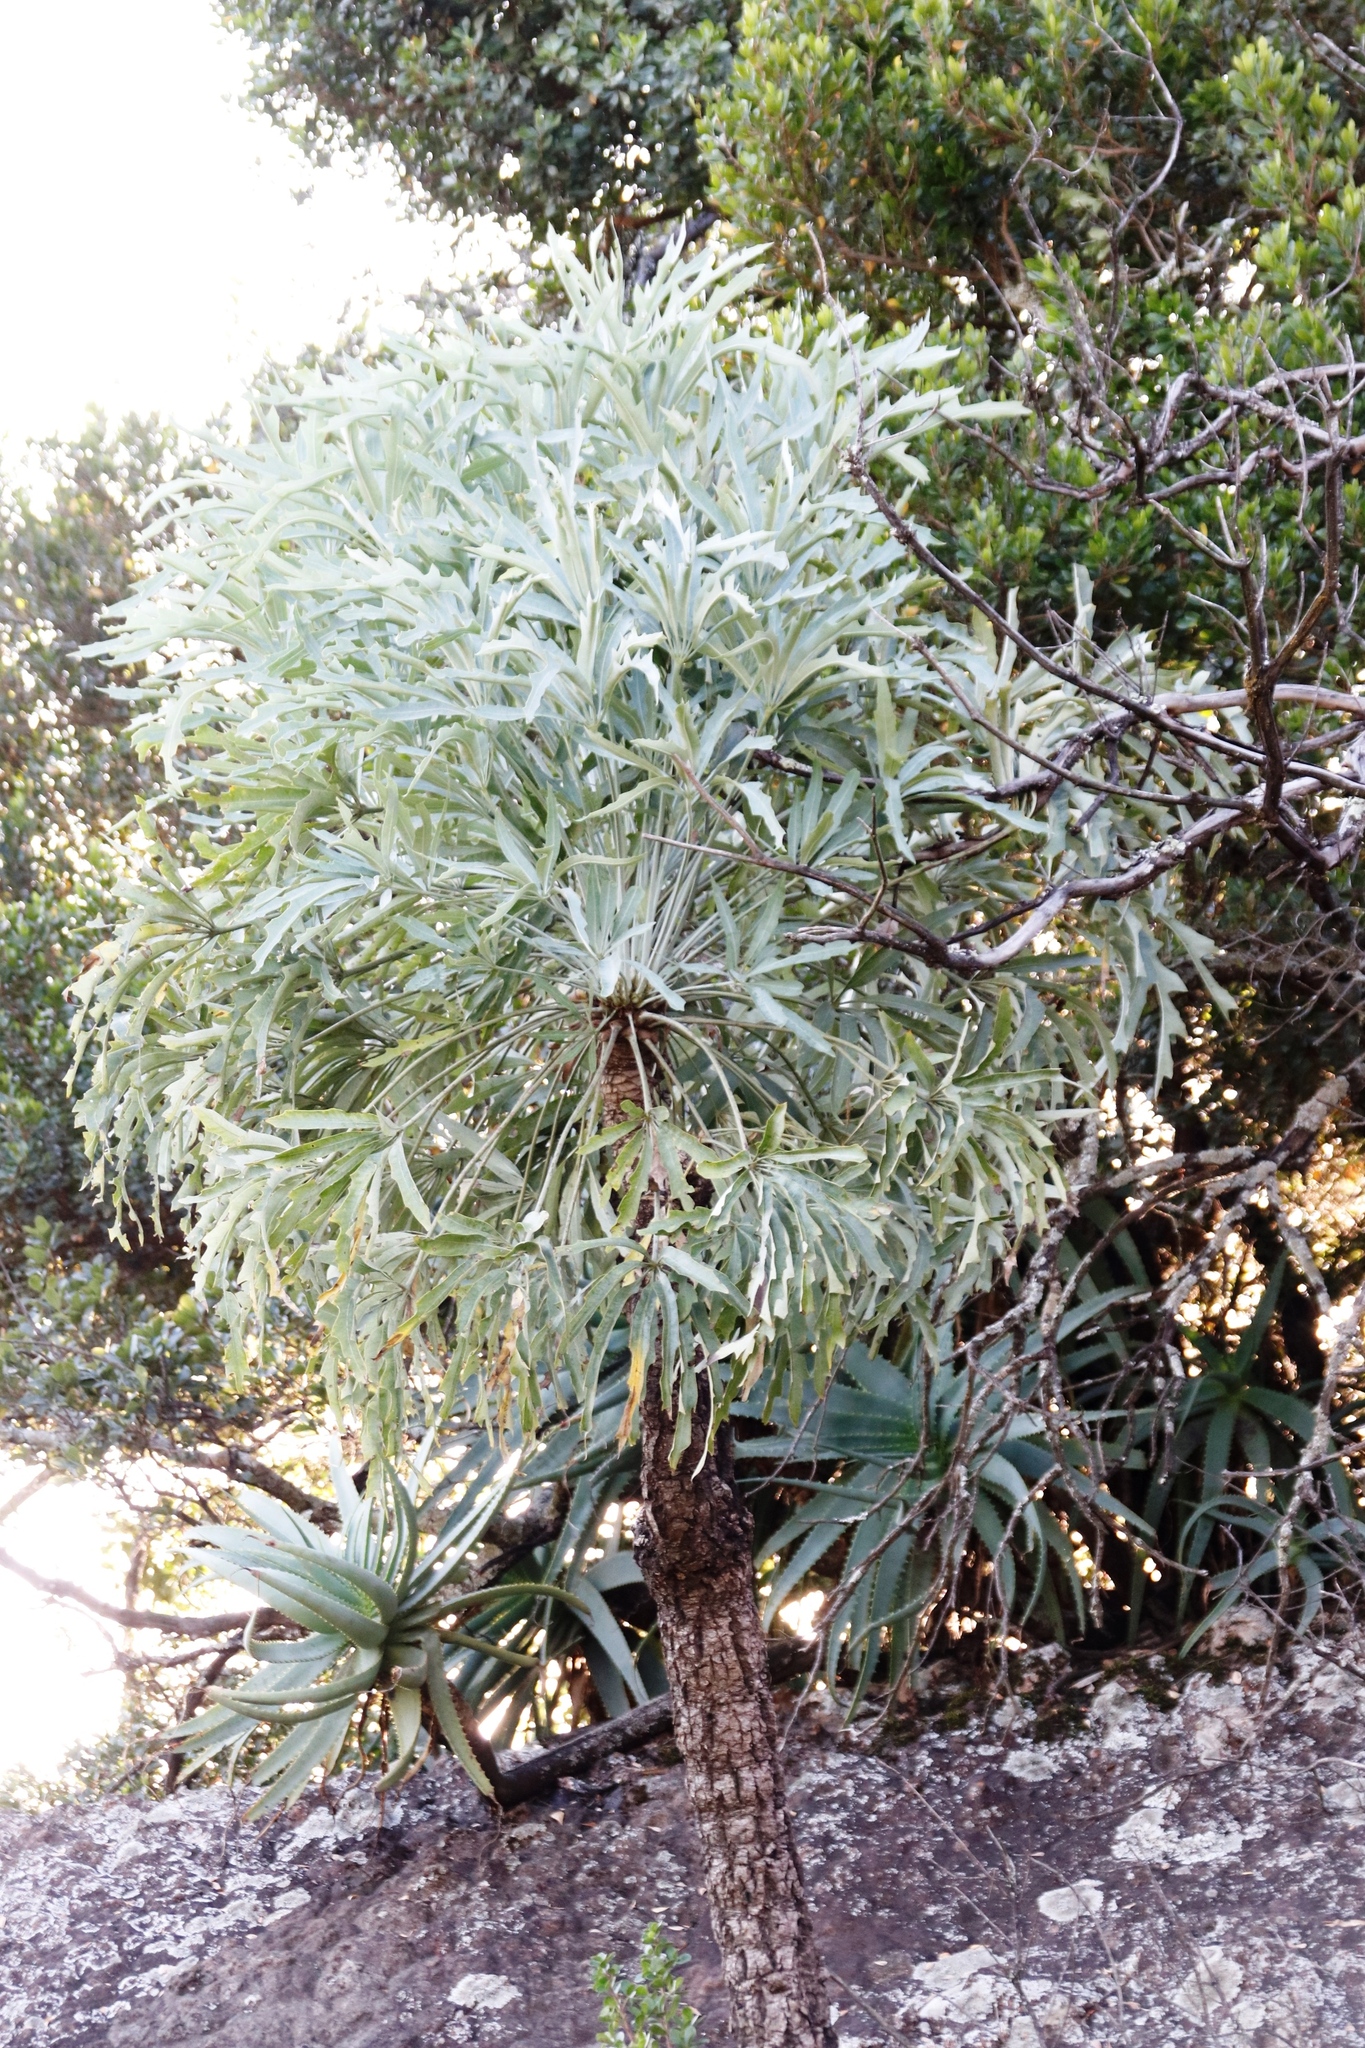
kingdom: Plantae
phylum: Tracheophyta
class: Magnoliopsida
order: Apiales
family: Araliaceae
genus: Cussonia
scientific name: Cussonia paniculata
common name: Cabbagetree
